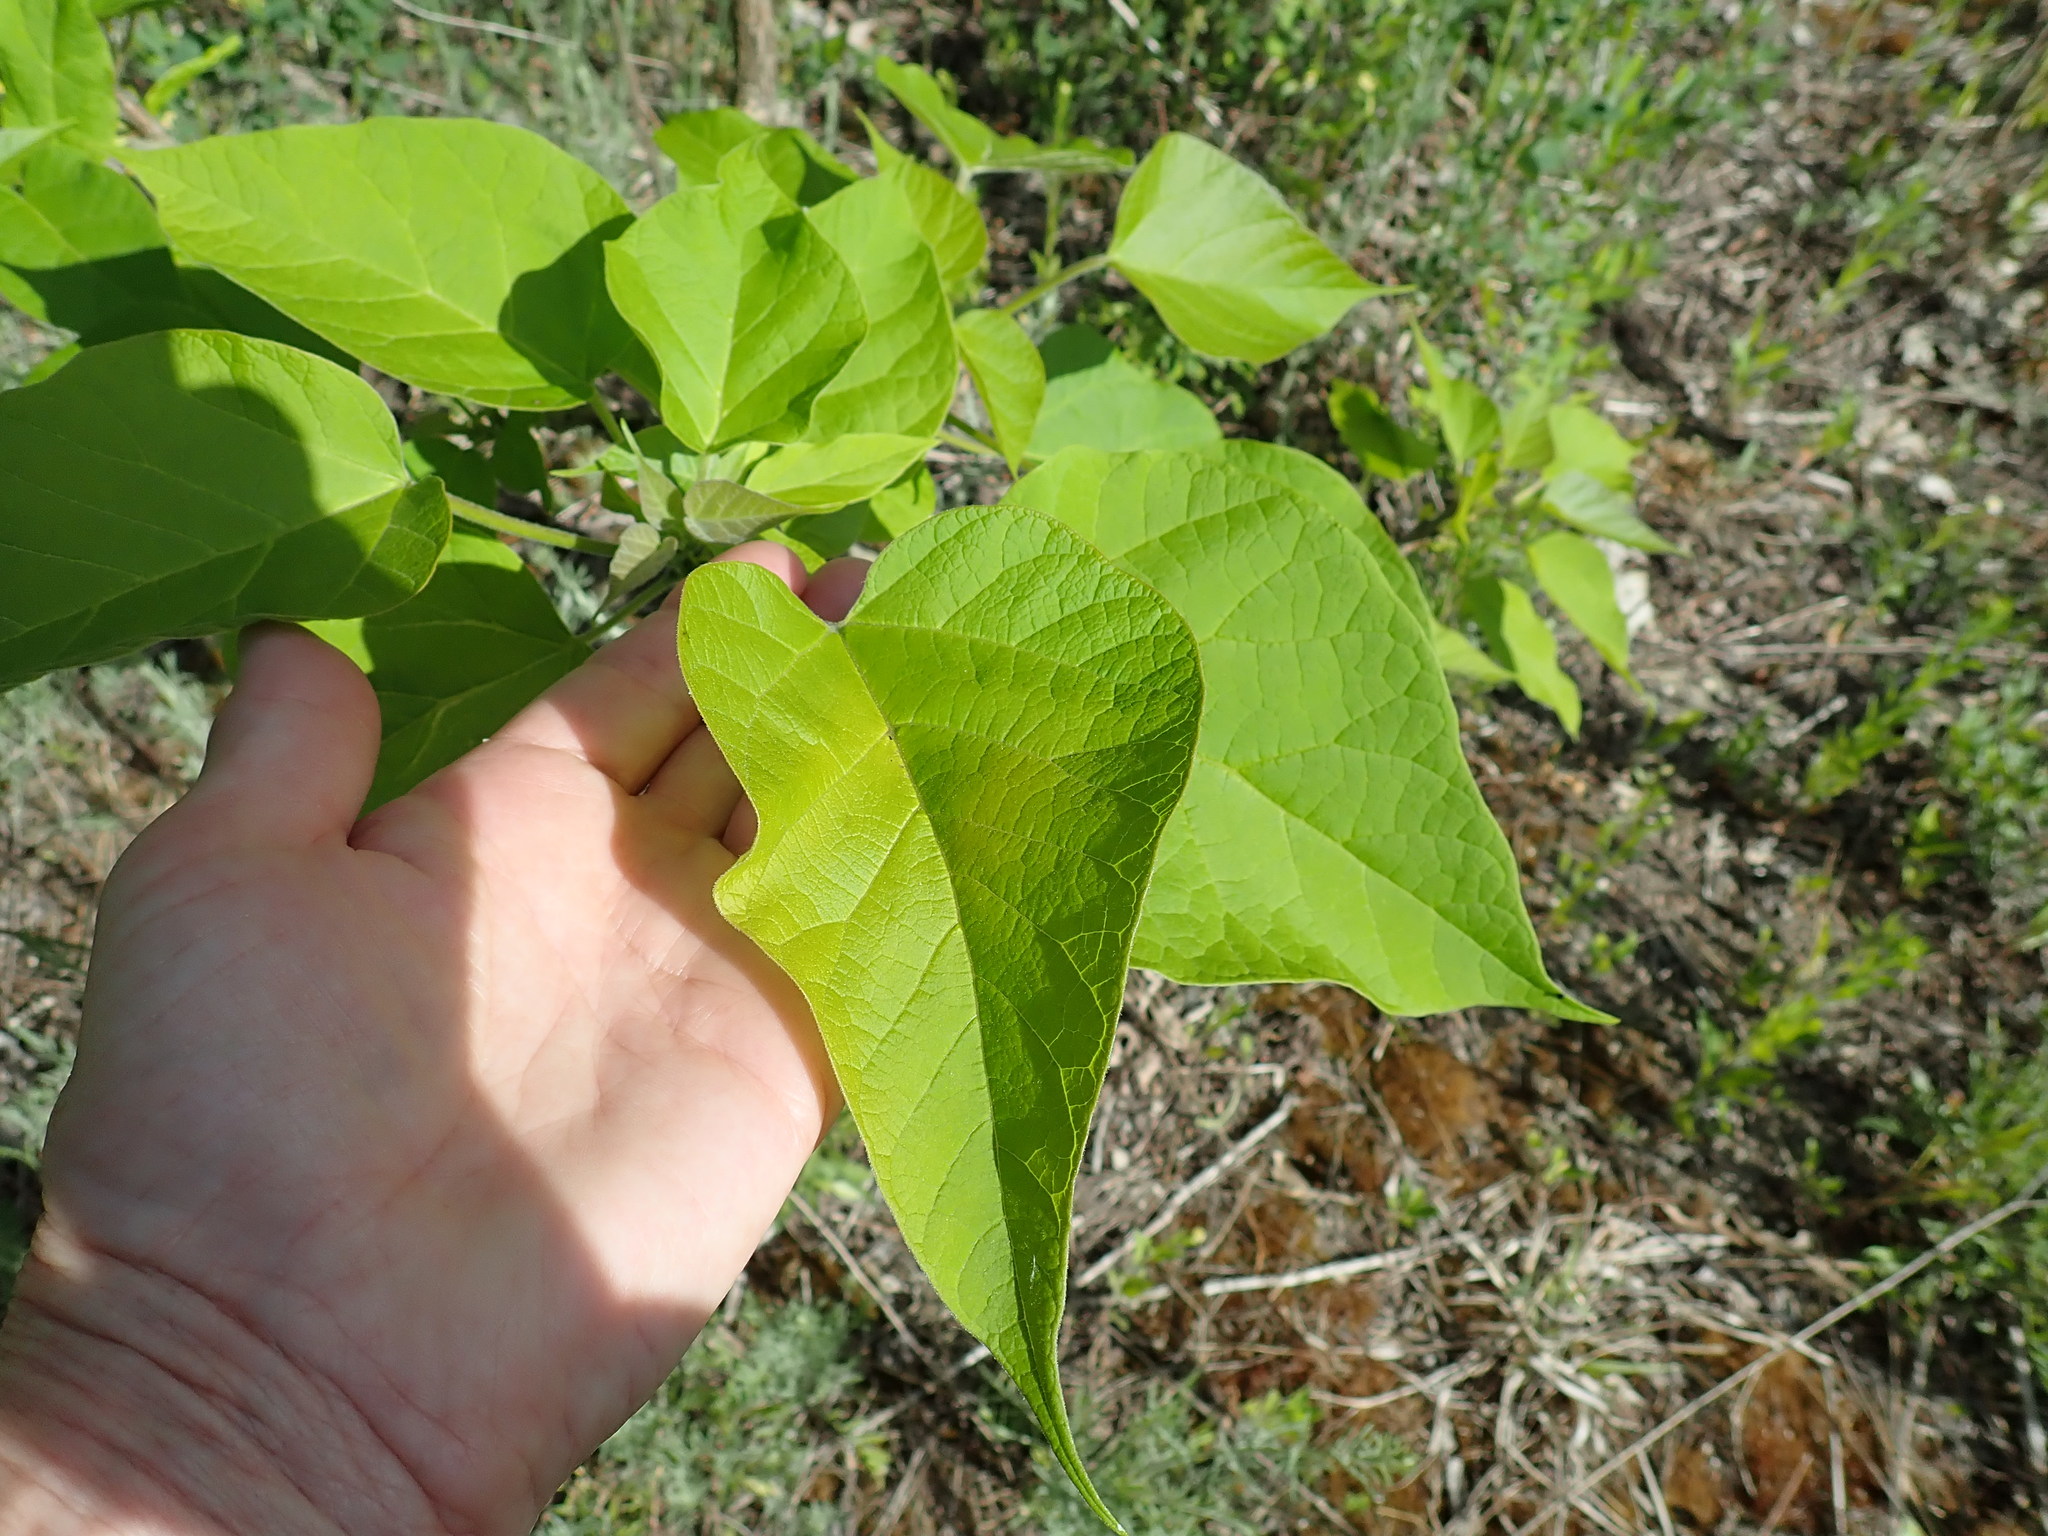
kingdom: Plantae
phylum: Tracheophyta
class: Magnoliopsida
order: Lamiales
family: Bignoniaceae
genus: Catalpa
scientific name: Catalpa
